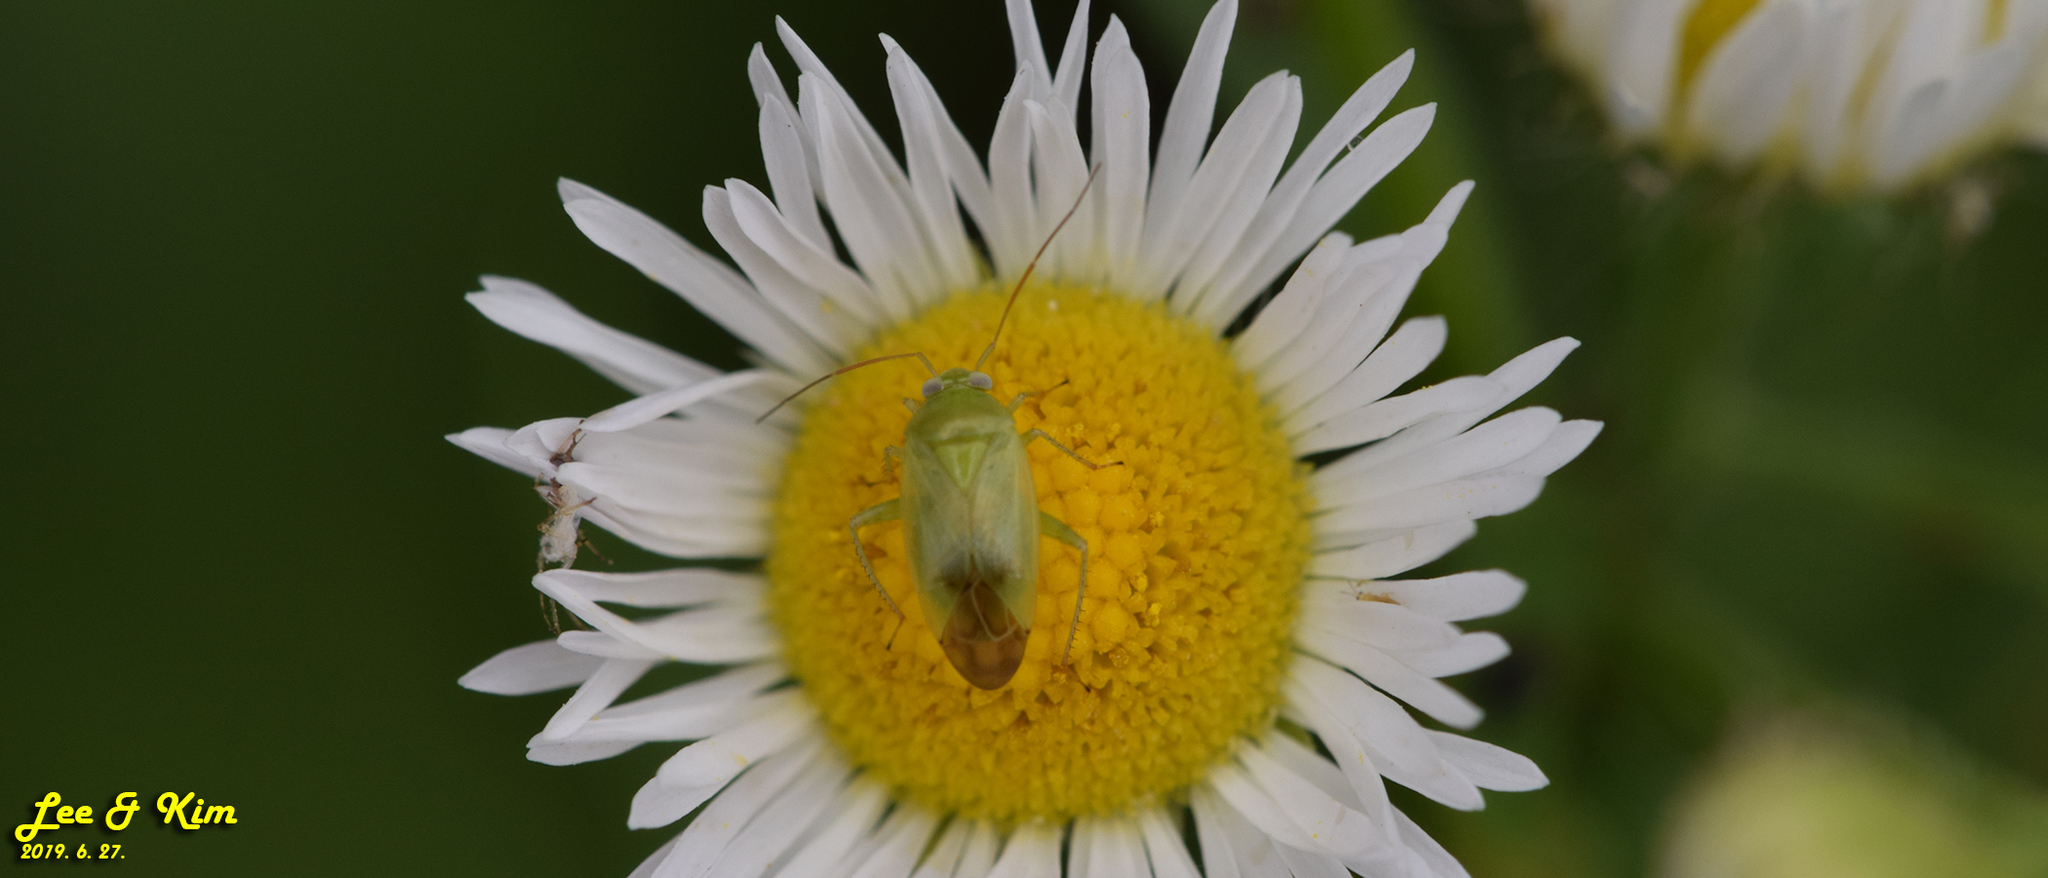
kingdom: Animalia
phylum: Arthropoda
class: Insecta
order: Hemiptera
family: Miridae
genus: Apolygus
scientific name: Apolygus spinolae
